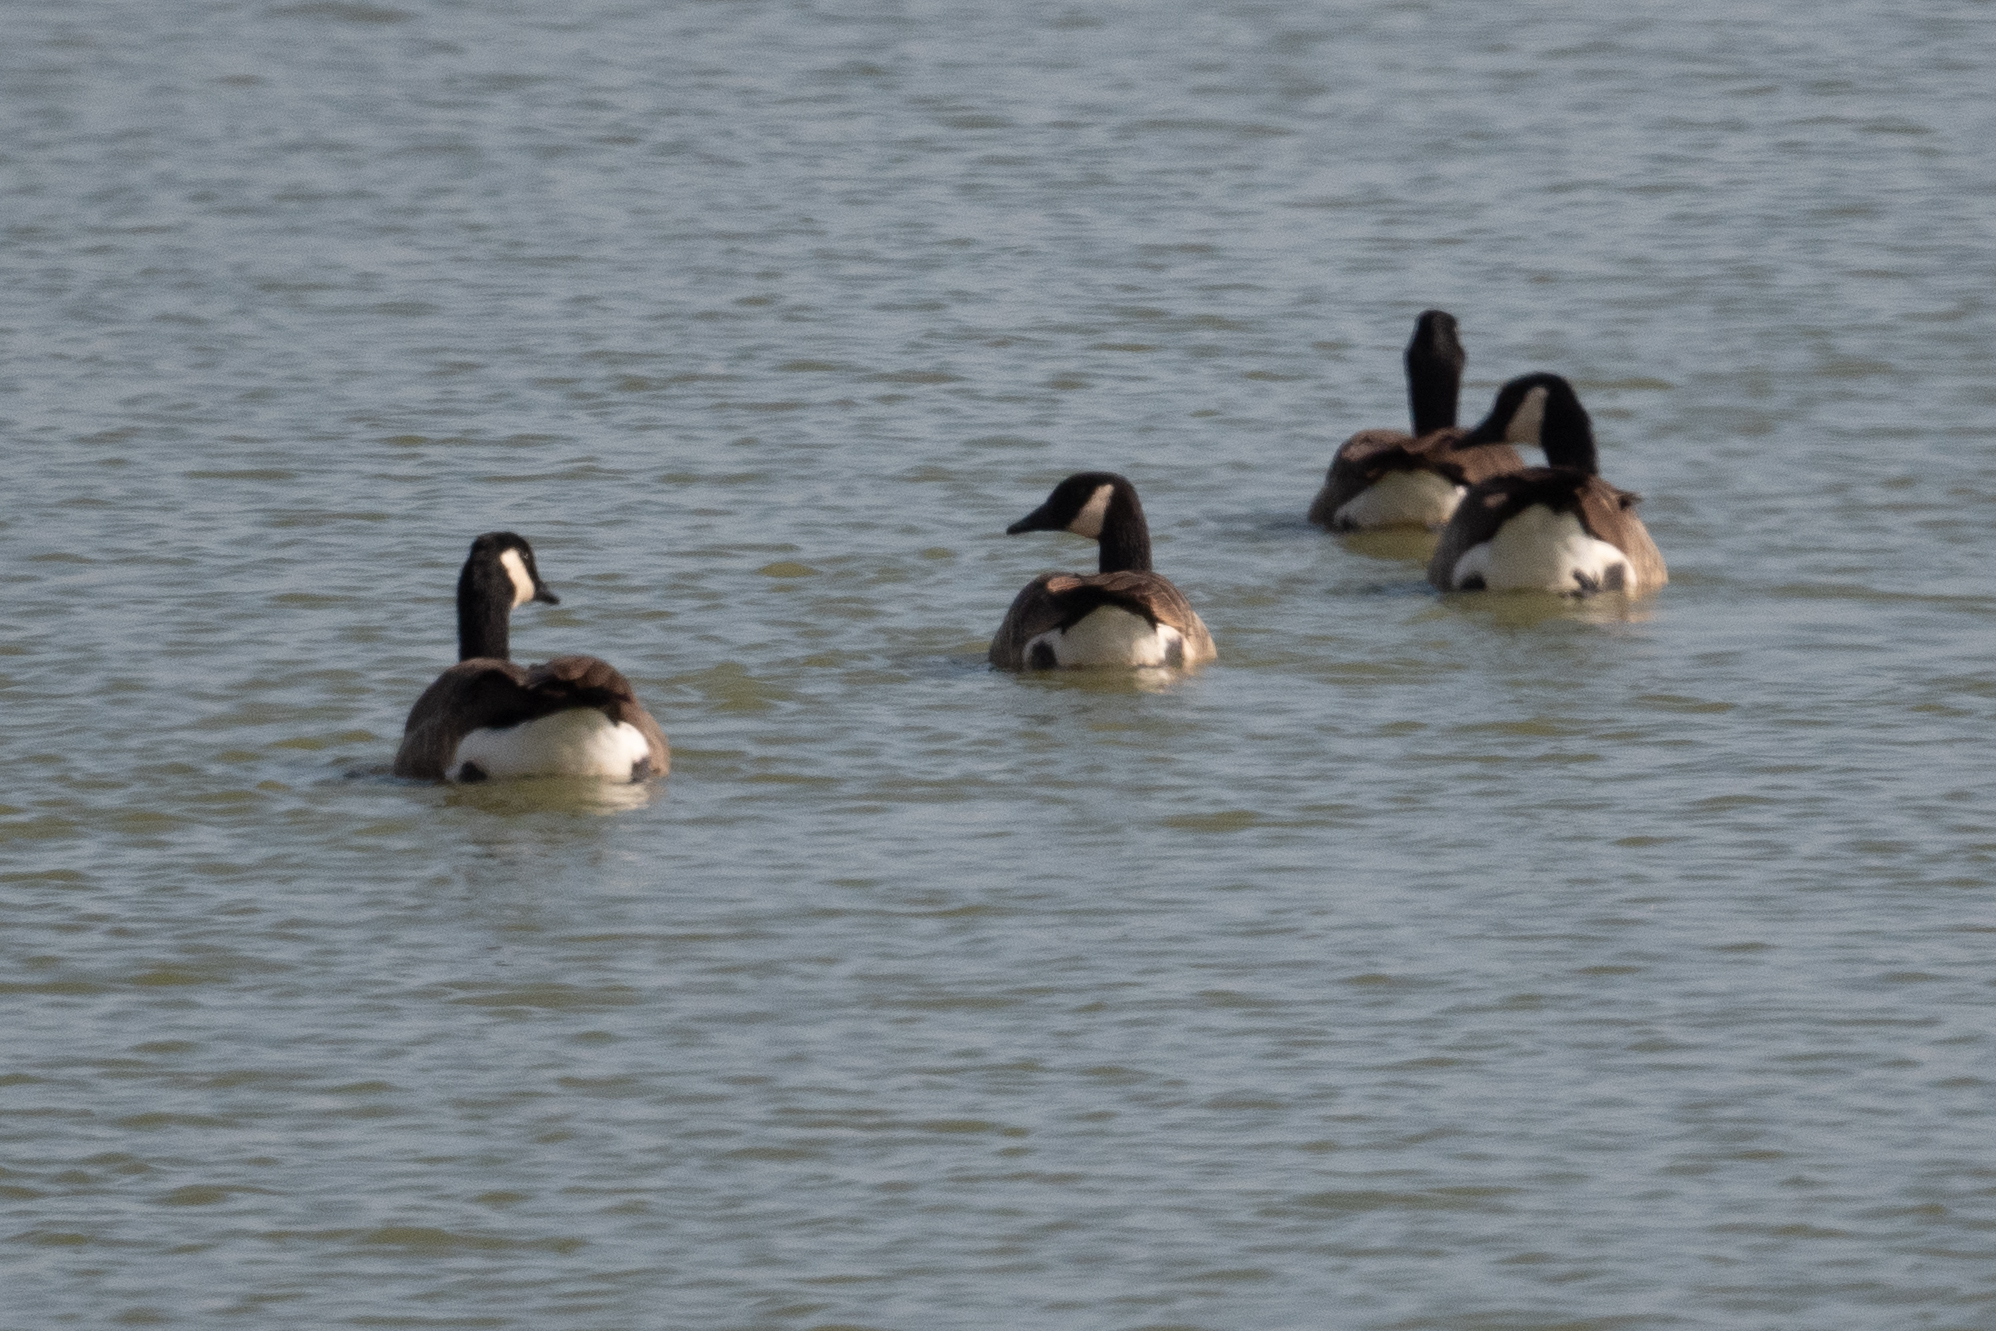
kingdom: Animalia
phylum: Chordata
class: Aves
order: Anseriformes
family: Anatidae
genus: Branta
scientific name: Branta canadensis
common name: Canada goose
